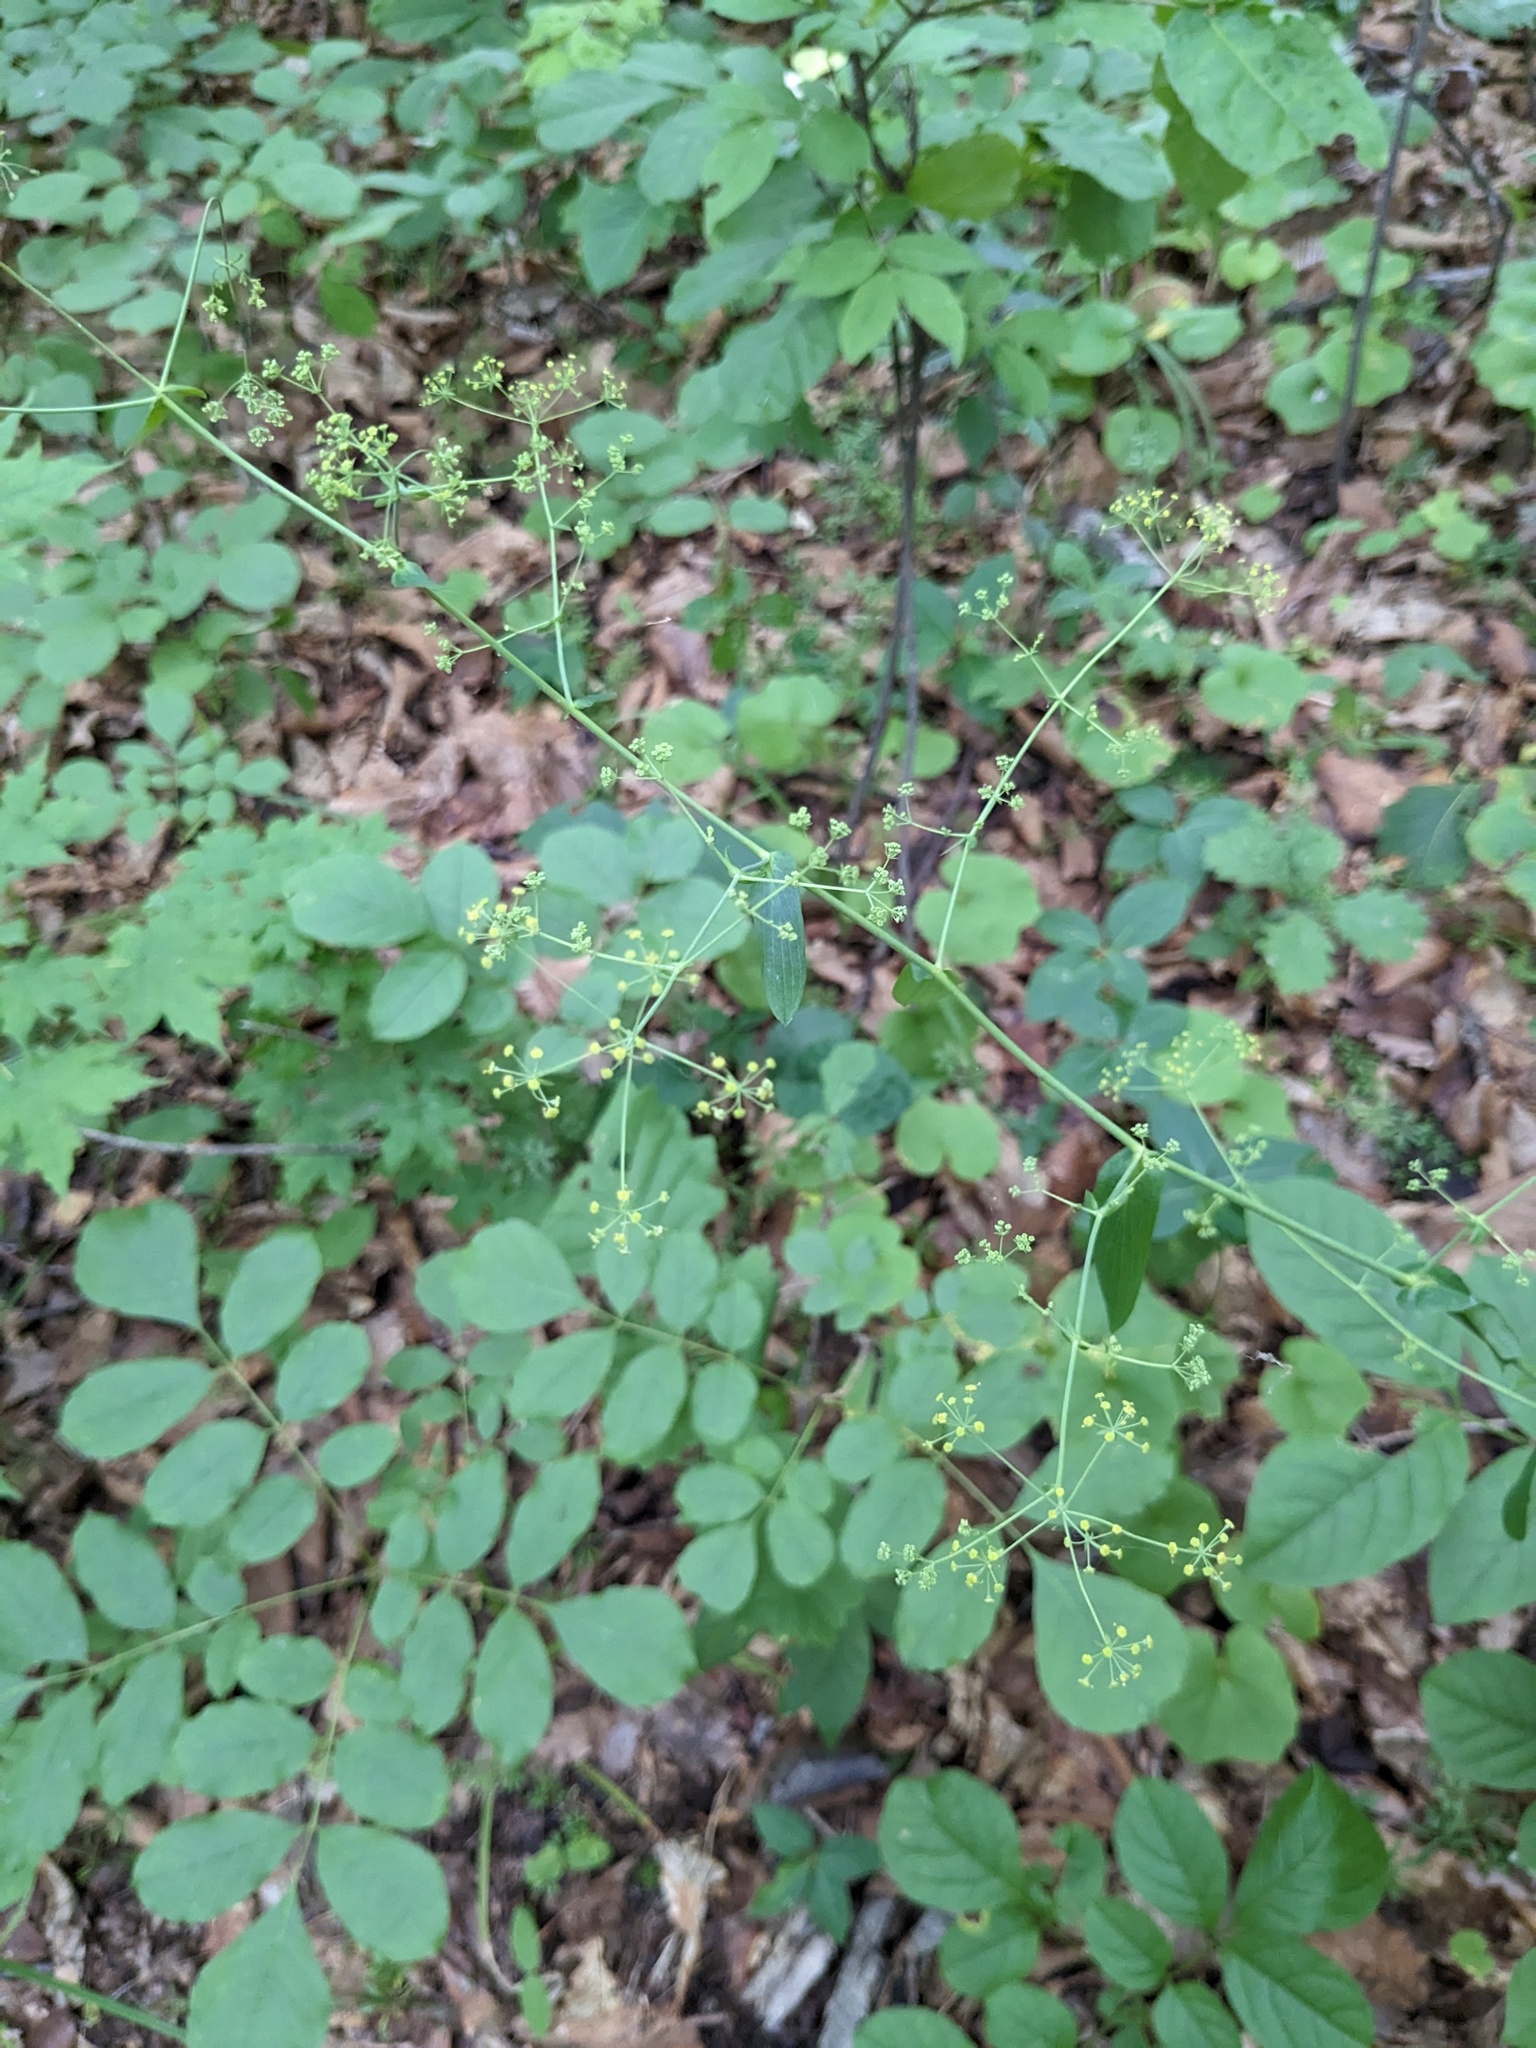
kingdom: Plantae
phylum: Tracheophyta
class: Magnoliopsida
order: Apiales
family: Apiaceae
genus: Bupleurum
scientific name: Bupleurum longiradiatum
